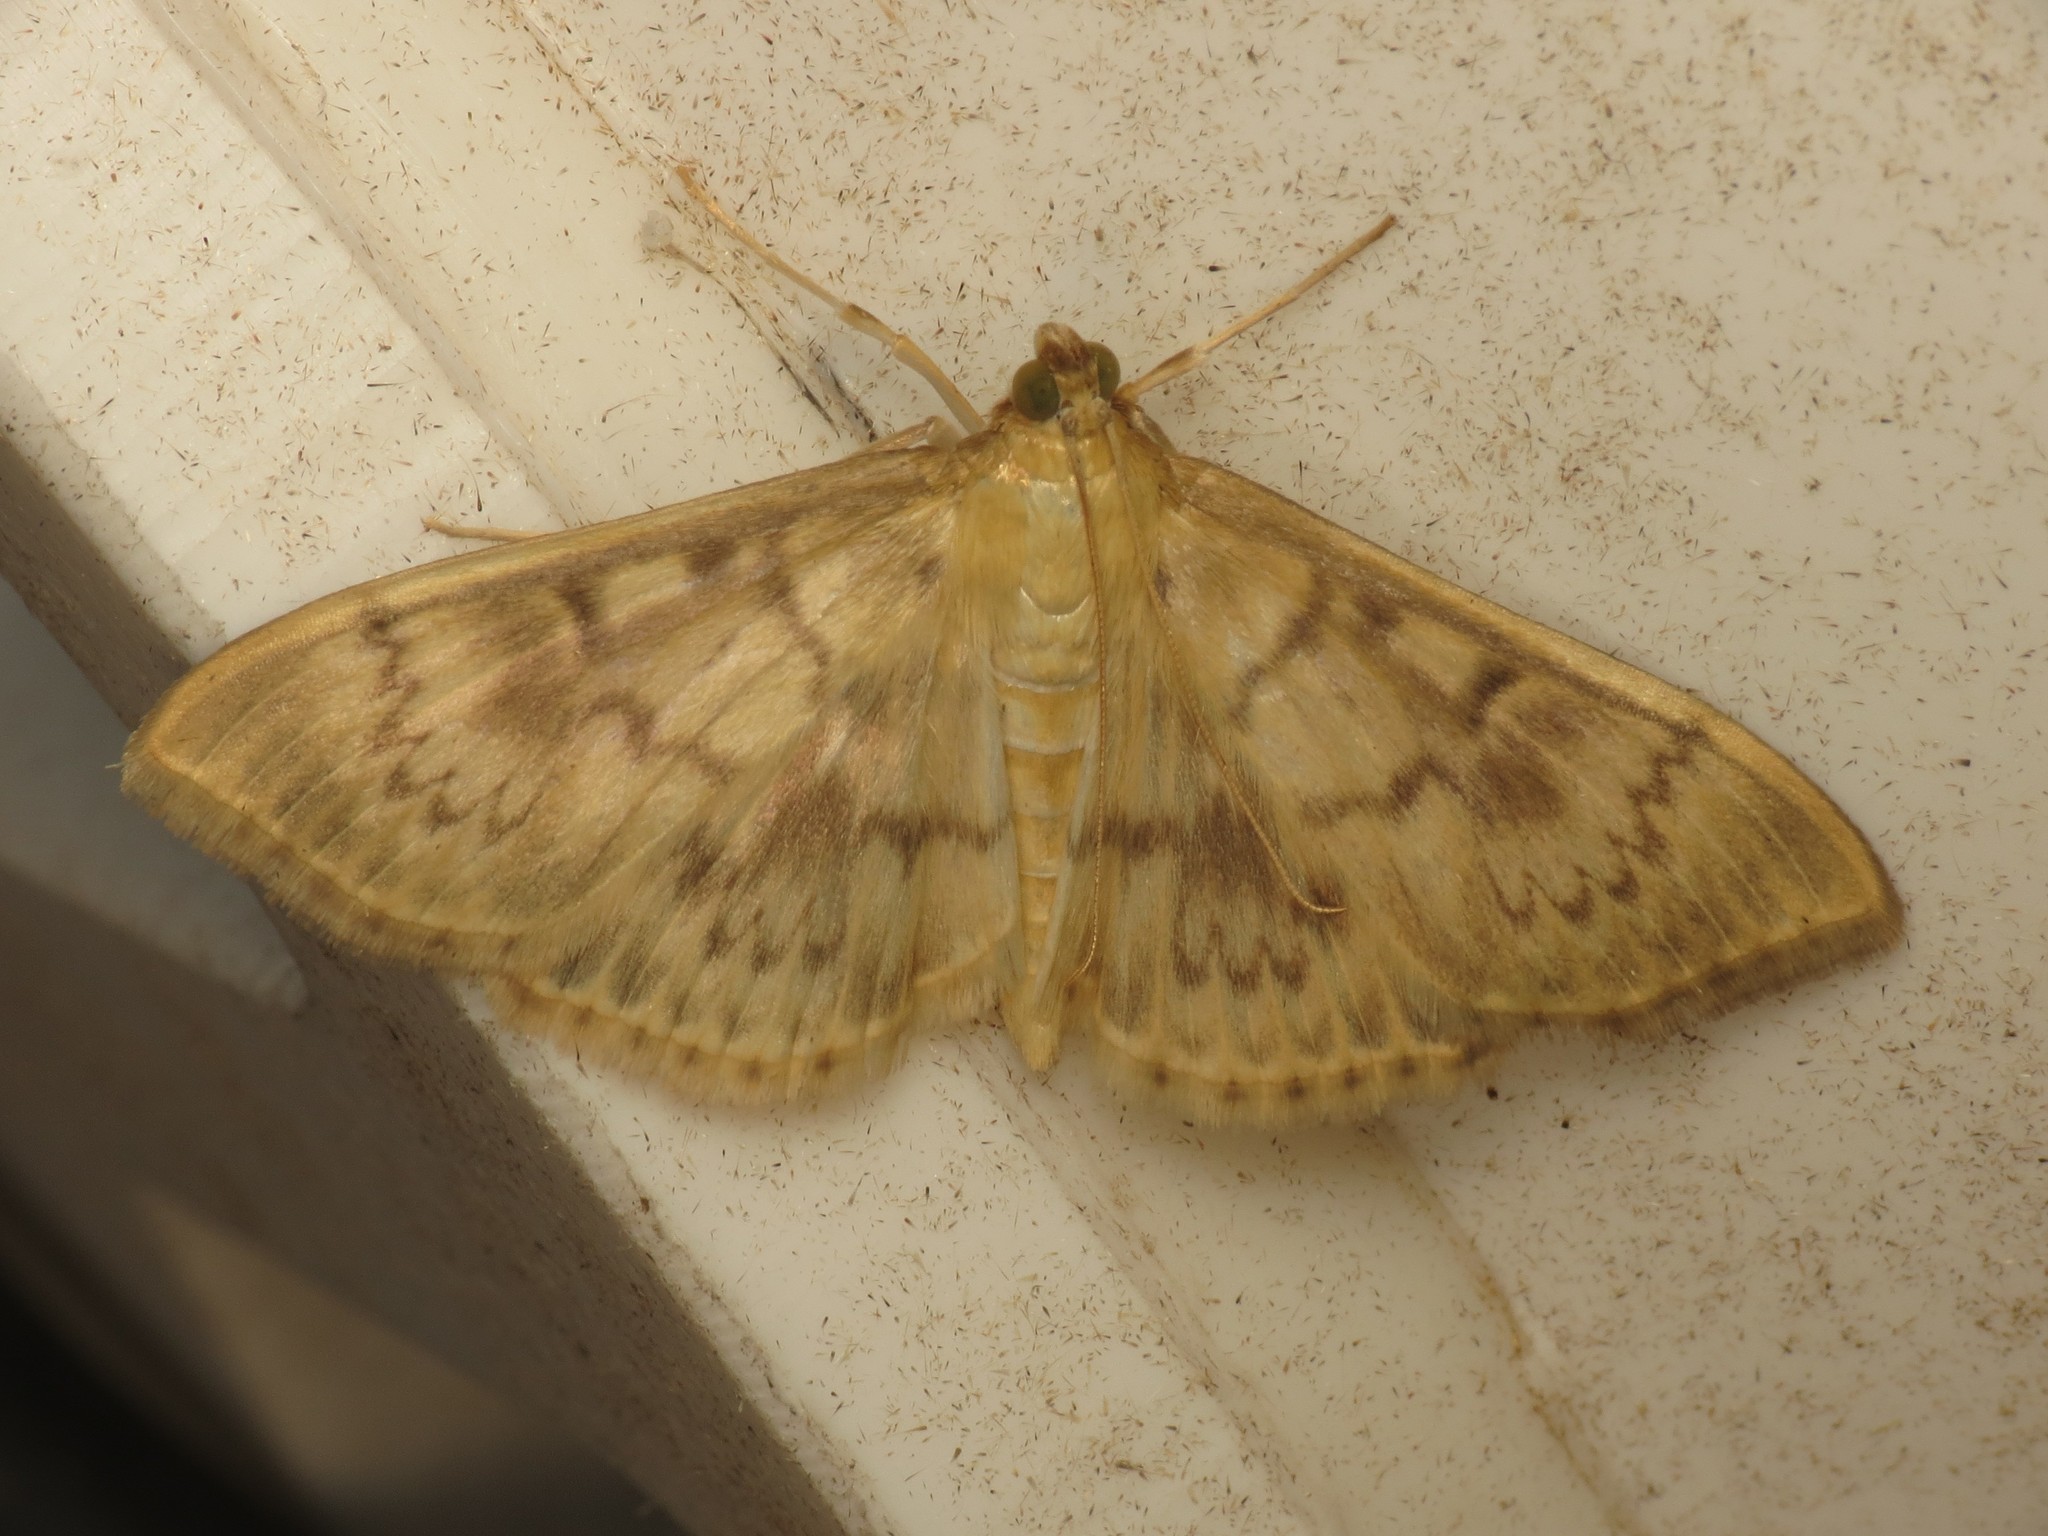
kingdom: Animalia
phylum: Arthropoda
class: Insecta
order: Lepidoptera
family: Crambidae
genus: Patania
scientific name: Patania ruralis
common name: Mother of pearl
